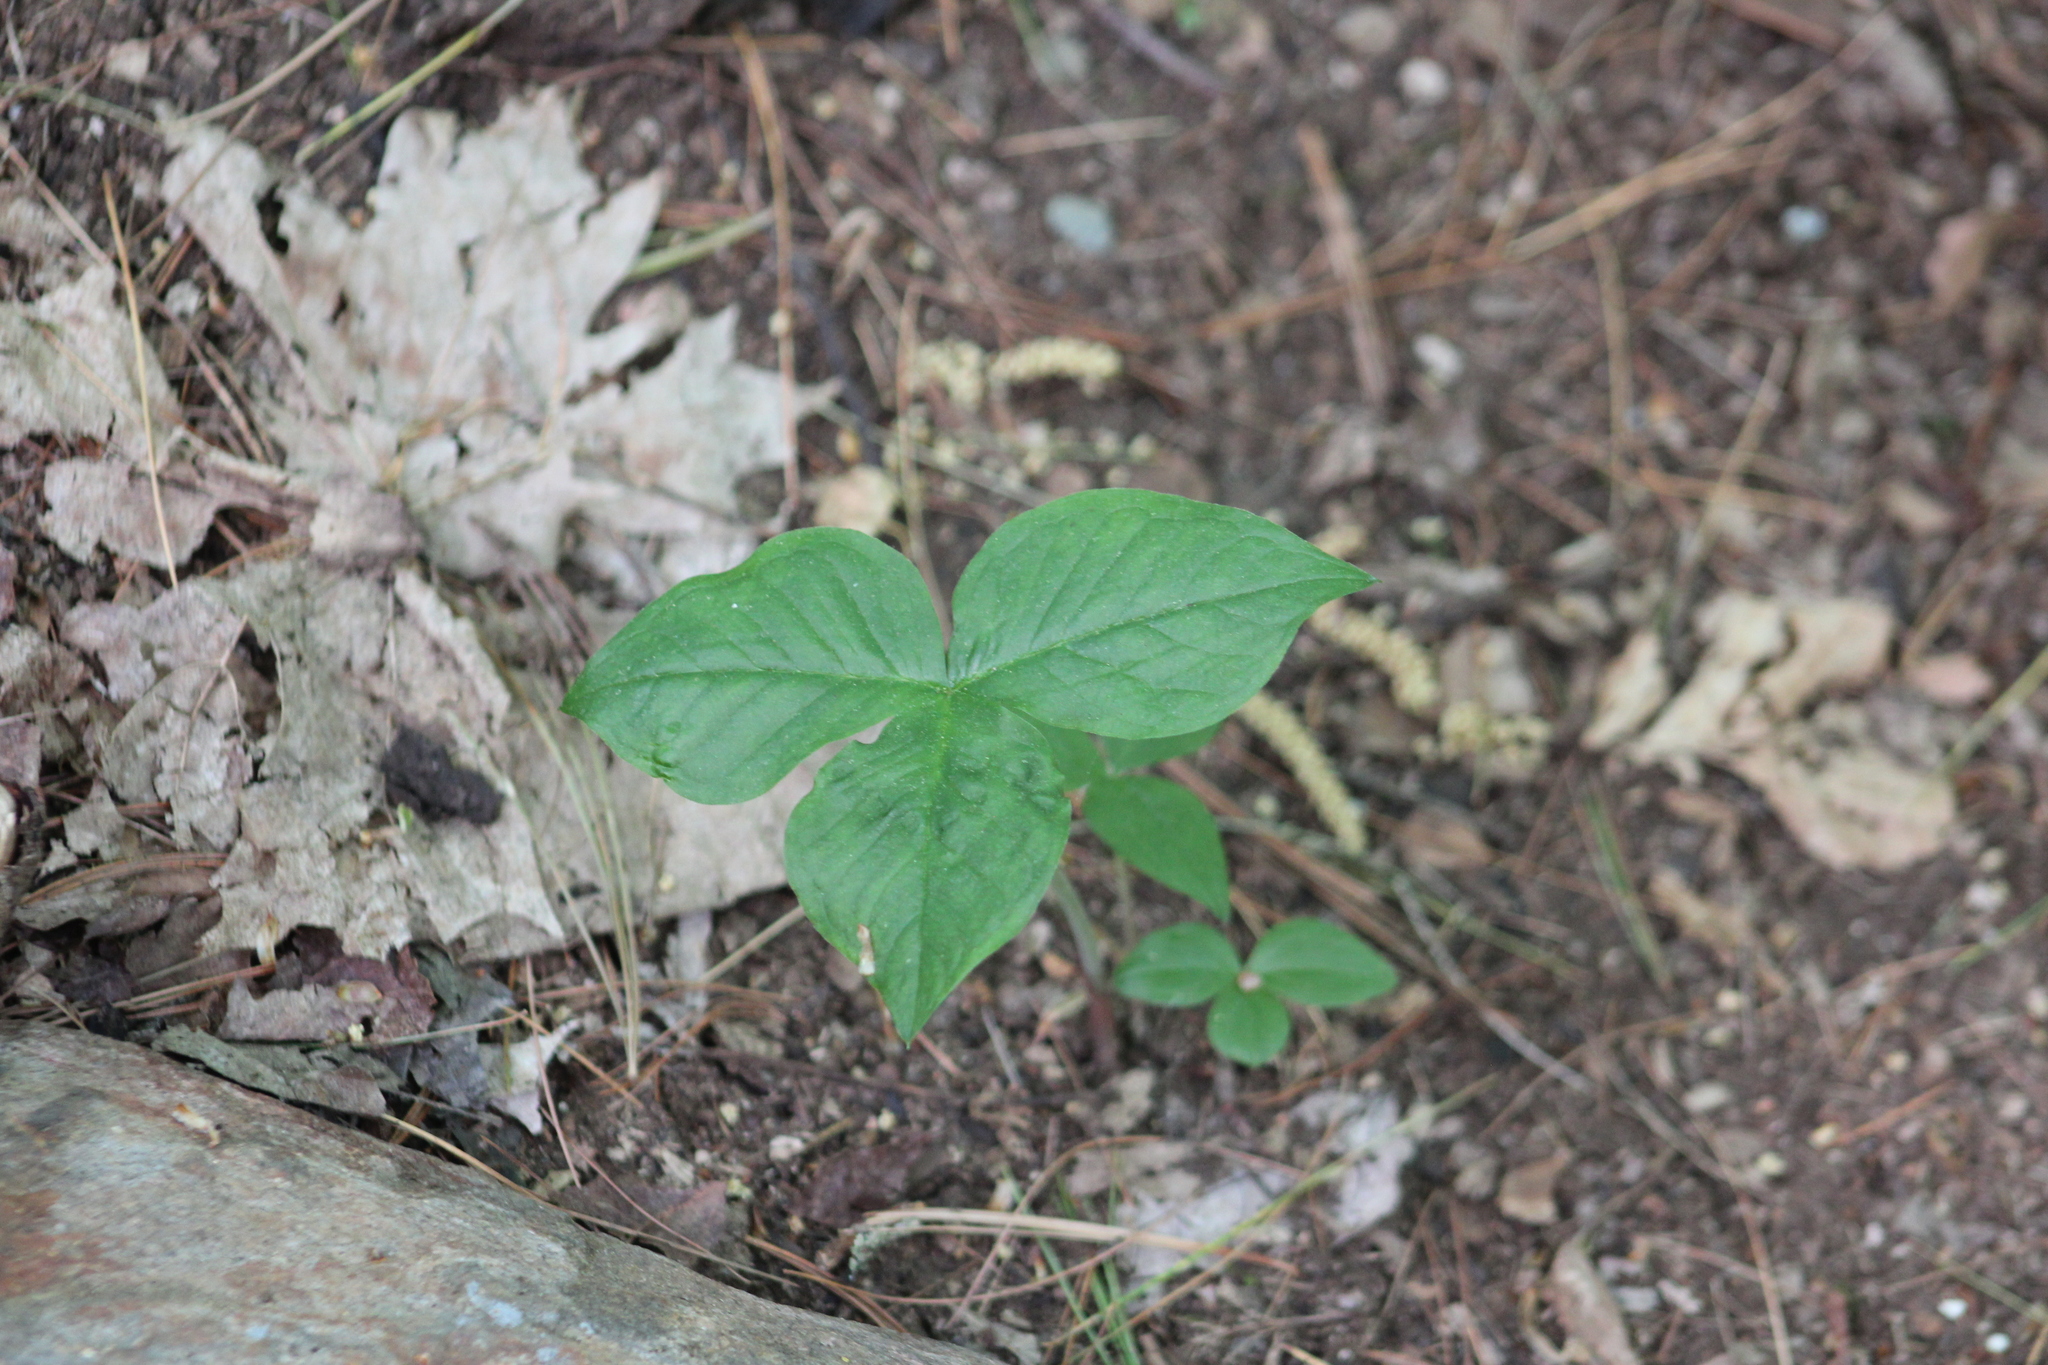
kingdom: Plantae
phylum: Tracheophyta
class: Liliopsida
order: Alismatales
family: Araceae
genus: Arisaema
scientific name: Arisaema triphyllum
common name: Jack-in-the-pulpit
